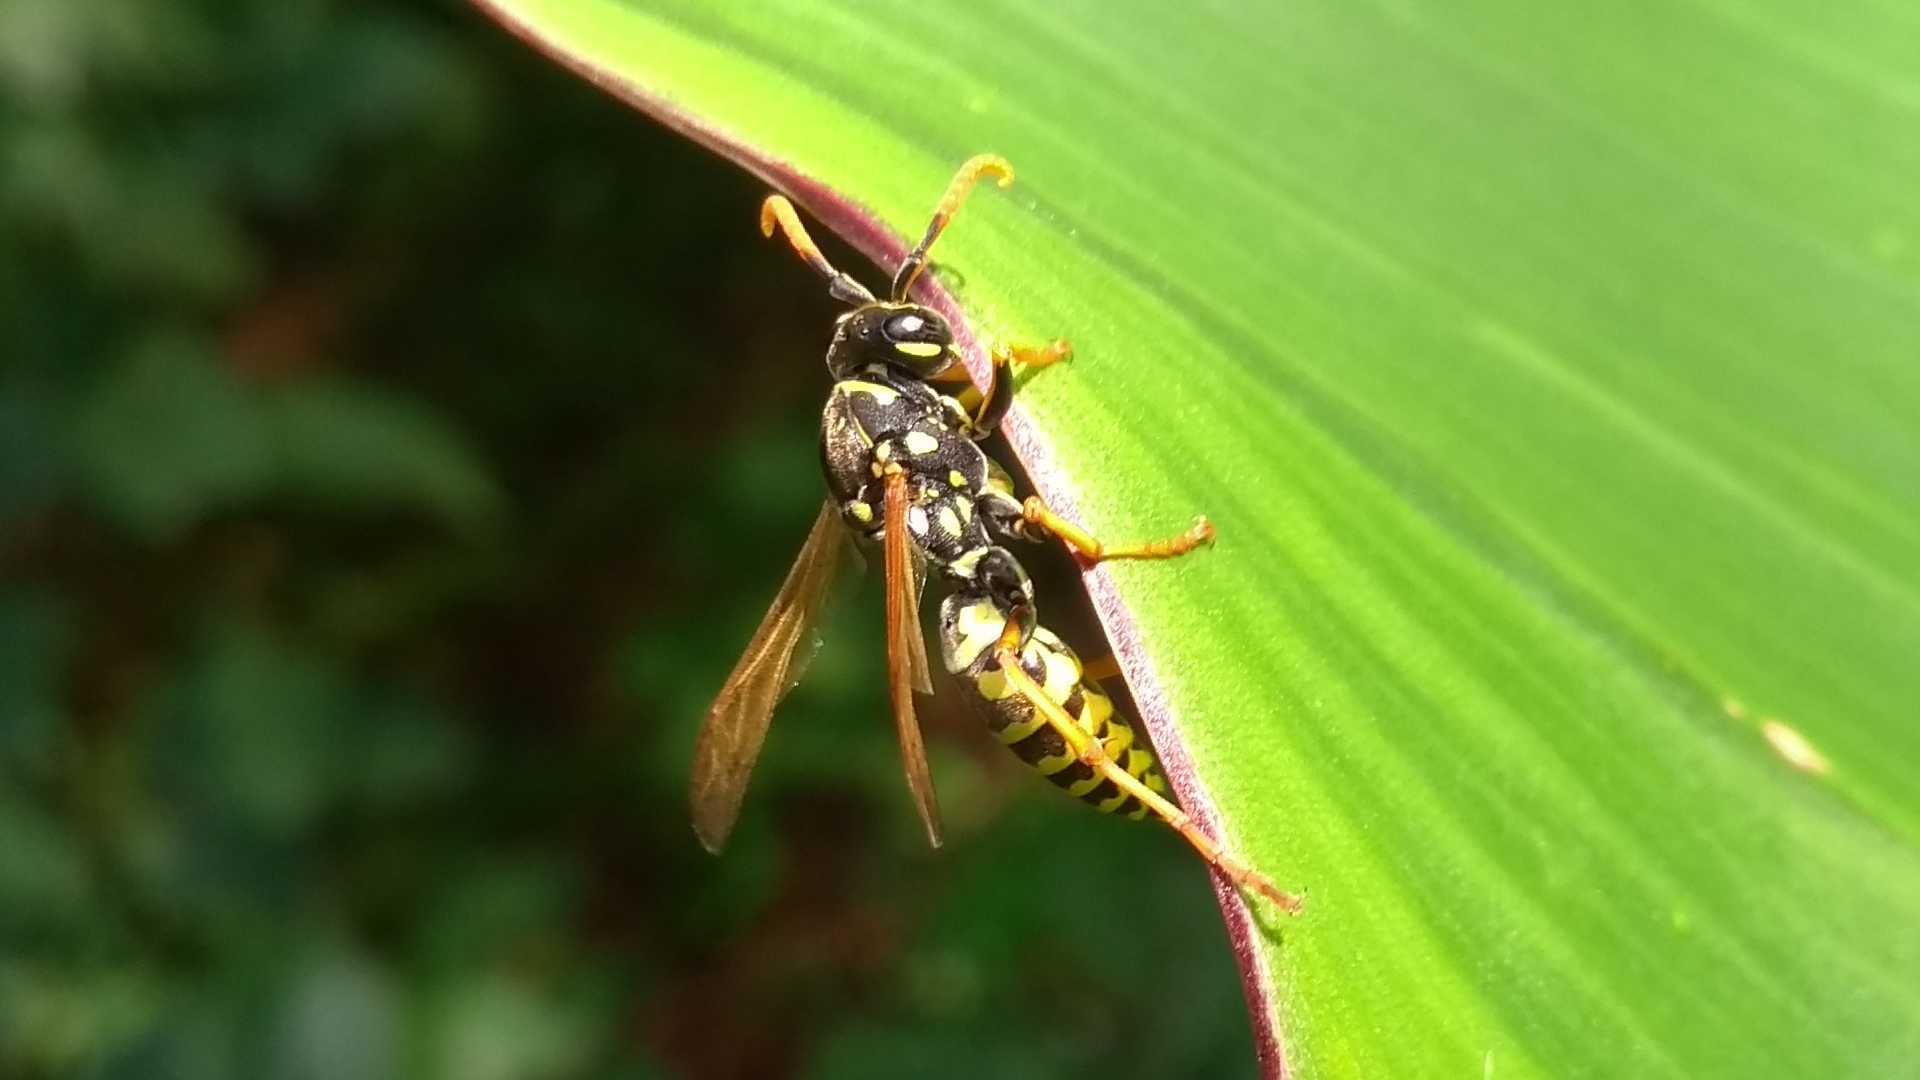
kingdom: Animalia
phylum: Arthropoda
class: Insecta
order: Hymenoptera
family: Eumenidae
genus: Polistes
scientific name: Polistes dominula
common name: Paper wasp
